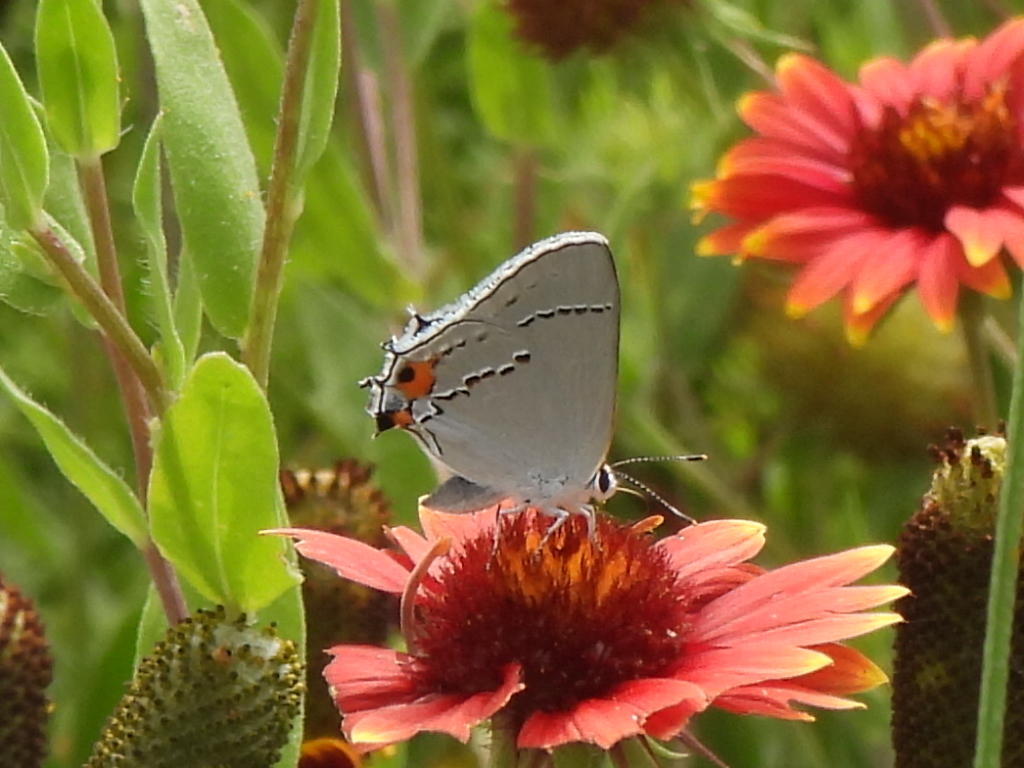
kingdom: Animalia
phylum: Arthropoda
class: Insecta
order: Lepidoptera
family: Lycaenidae
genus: Strymon
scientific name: Strymon melinus
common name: Gray hairstreak
